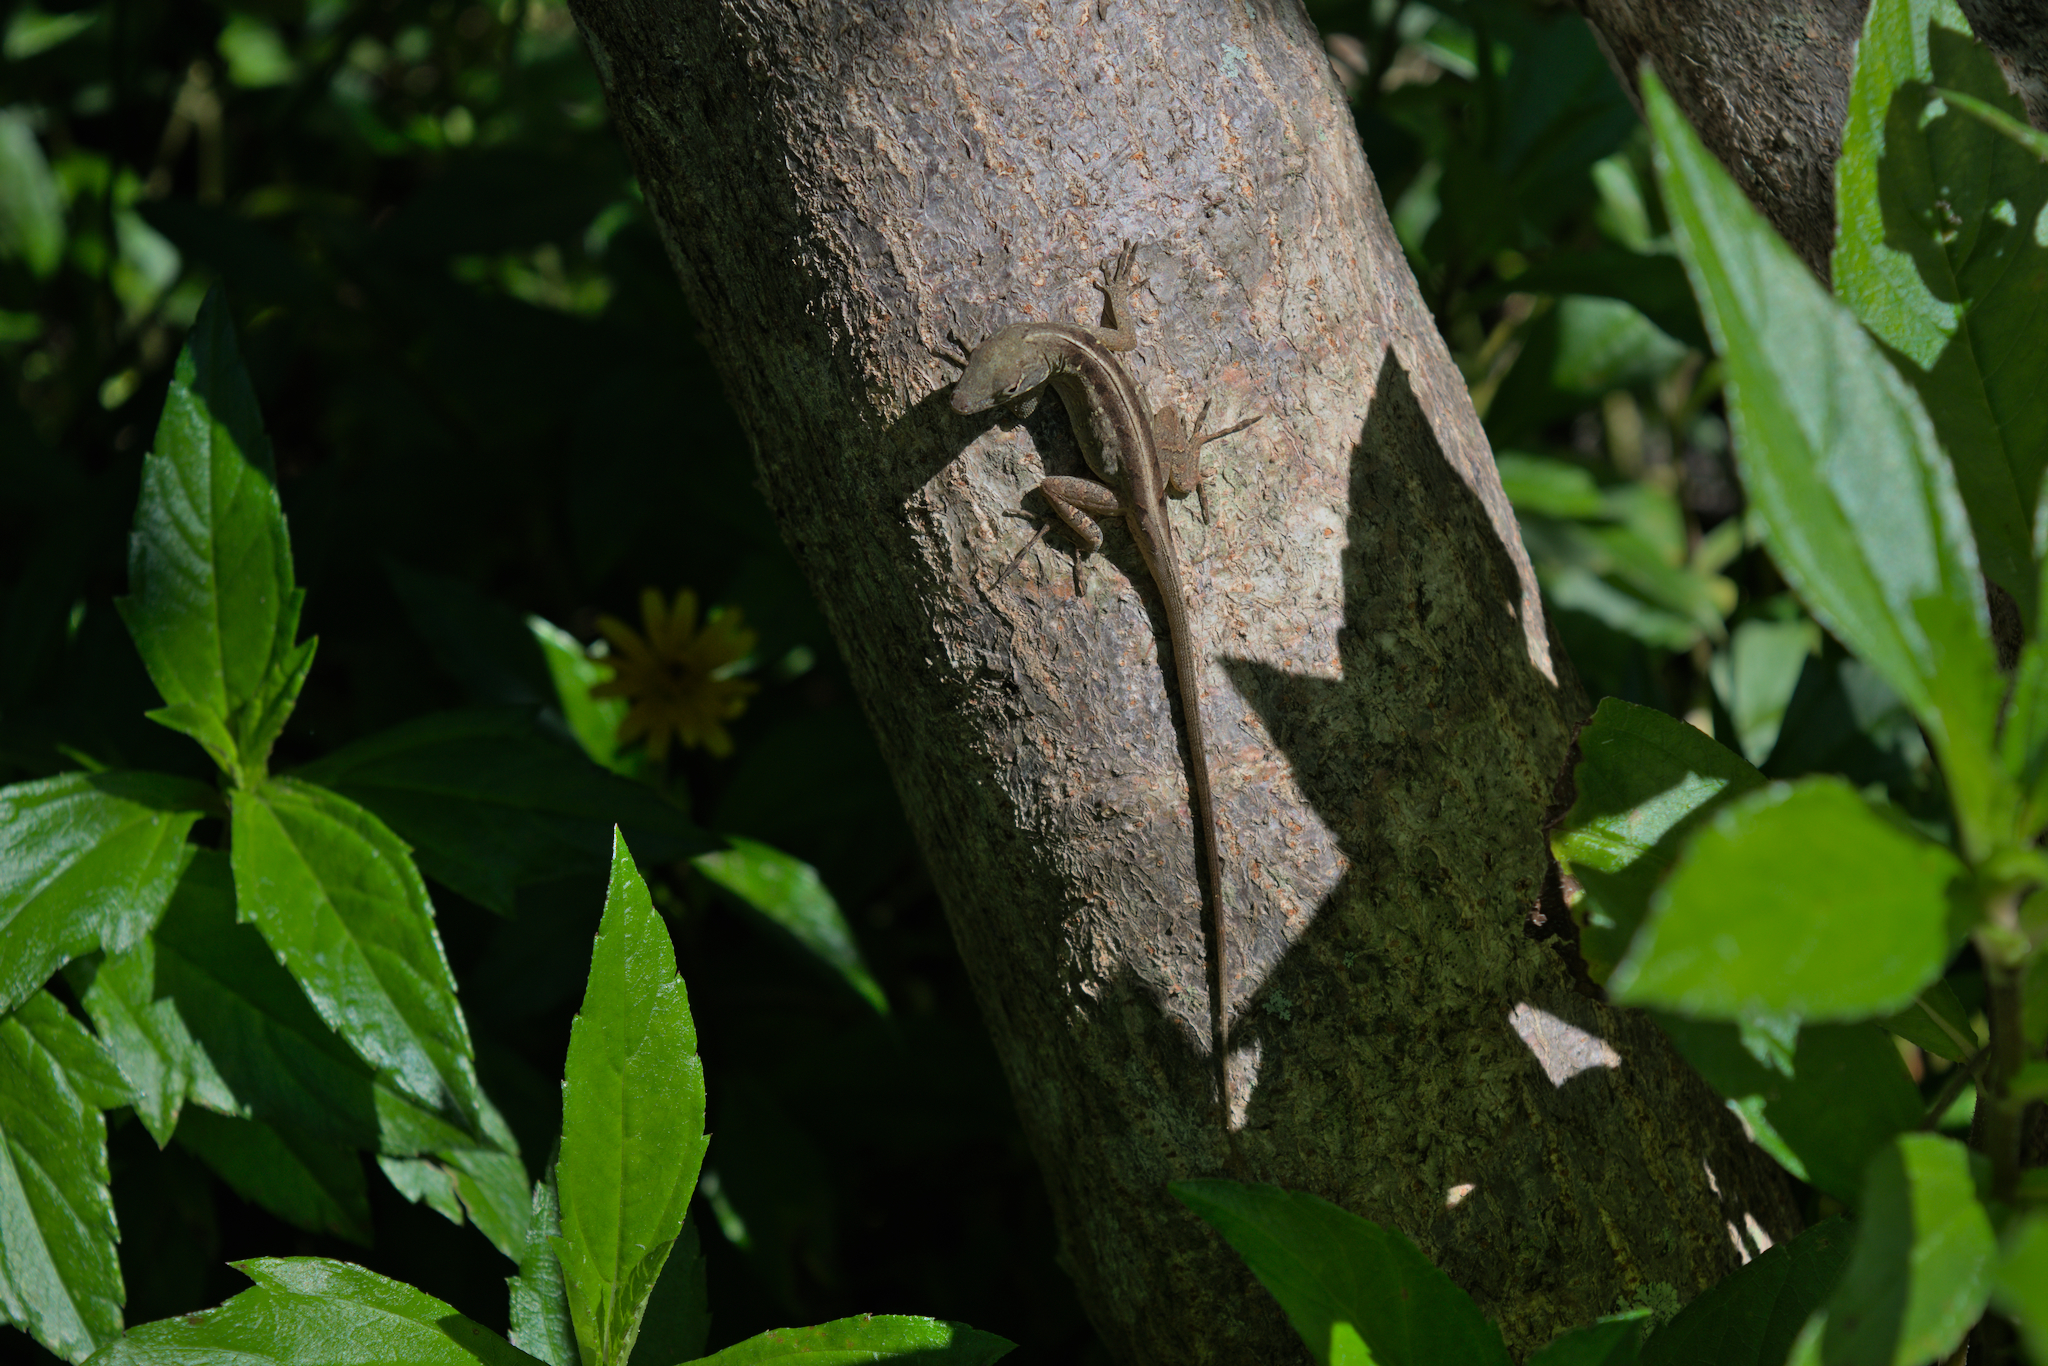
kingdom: Animalia
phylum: Chordata
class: Squamata
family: Dactyloidae
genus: Anolis
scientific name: Anolis sagrei
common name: Brown anole
